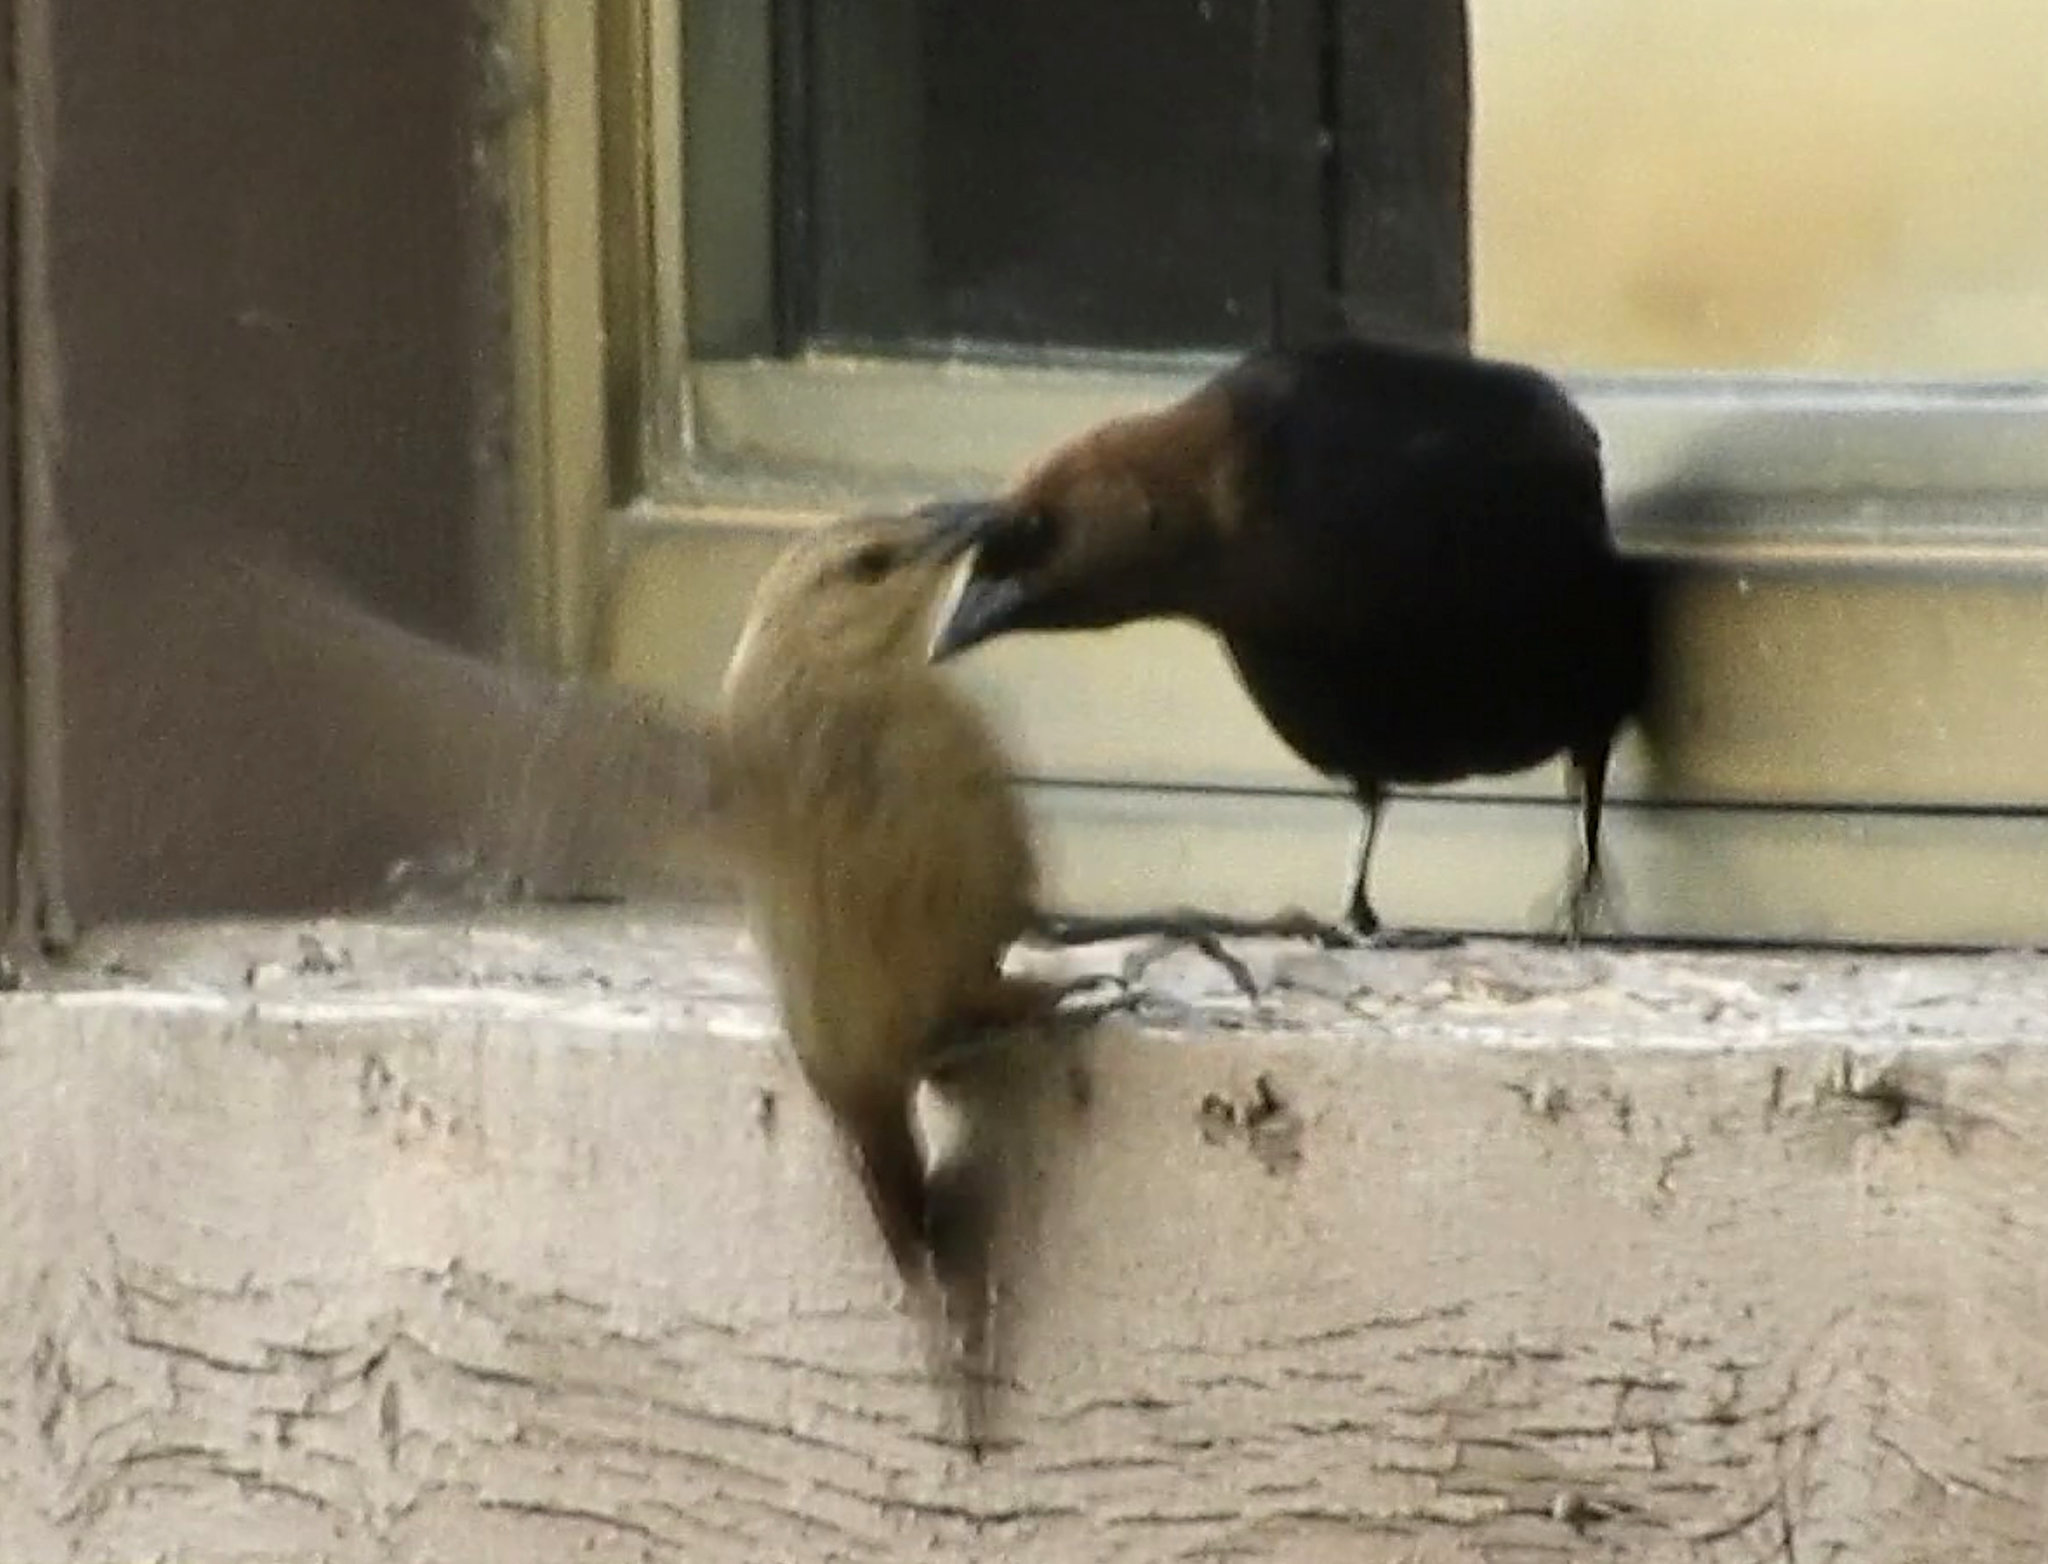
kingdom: Animalia
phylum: Chordata
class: Aves
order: Passeriformes
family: Icteridae
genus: Molothrus
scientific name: Molothrus ater
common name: Brown-headed cowbird
